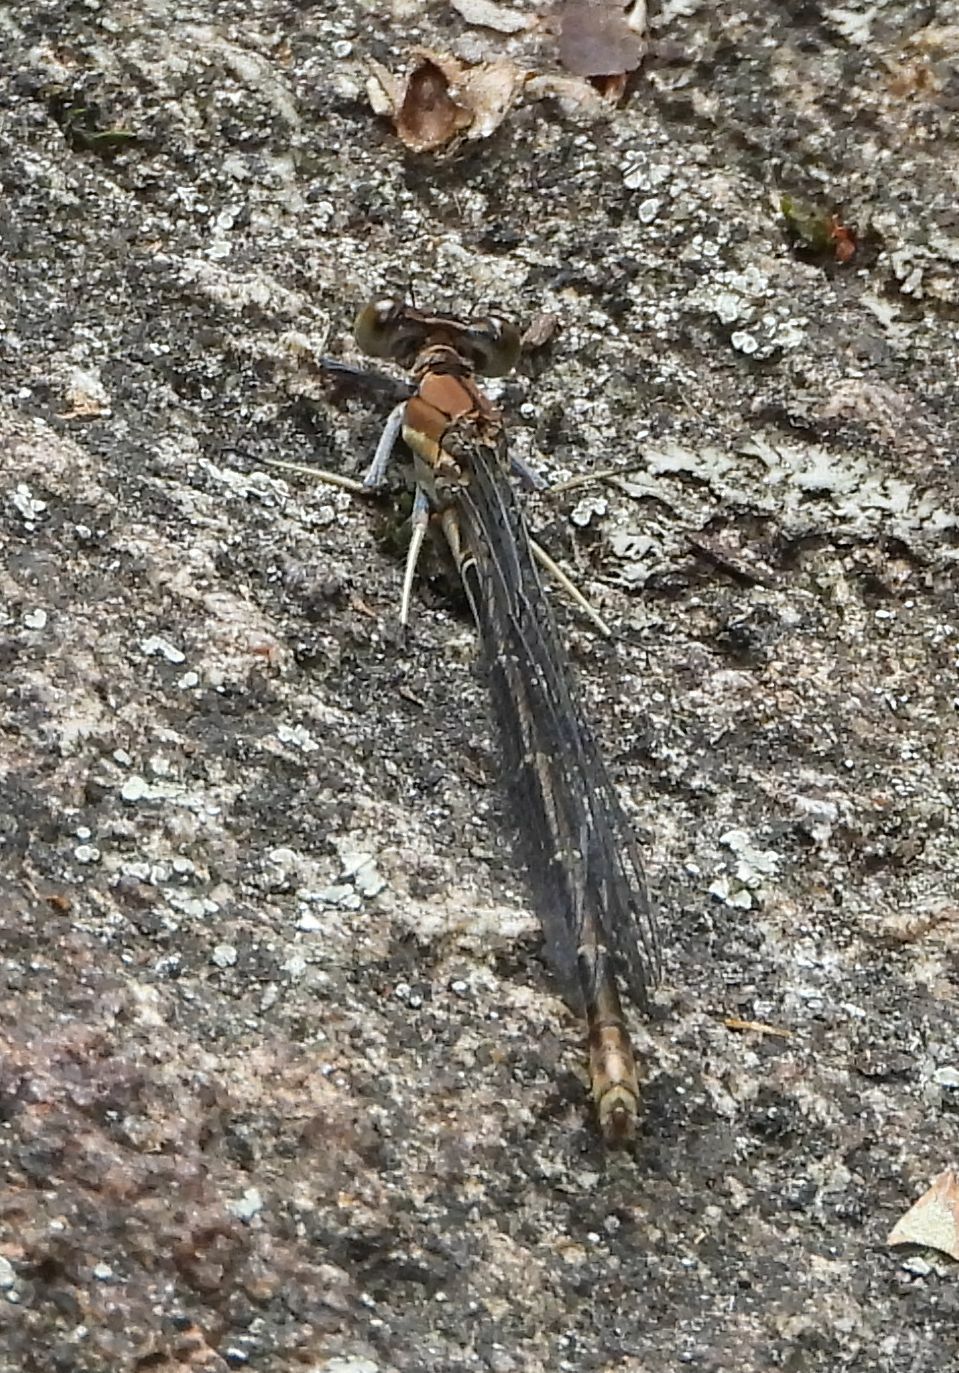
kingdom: Animalia
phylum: Arthropoda
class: Insecta
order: Odonata
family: Coenagrionidae
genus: Argia
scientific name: Argia moesta
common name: Powdered dancer
